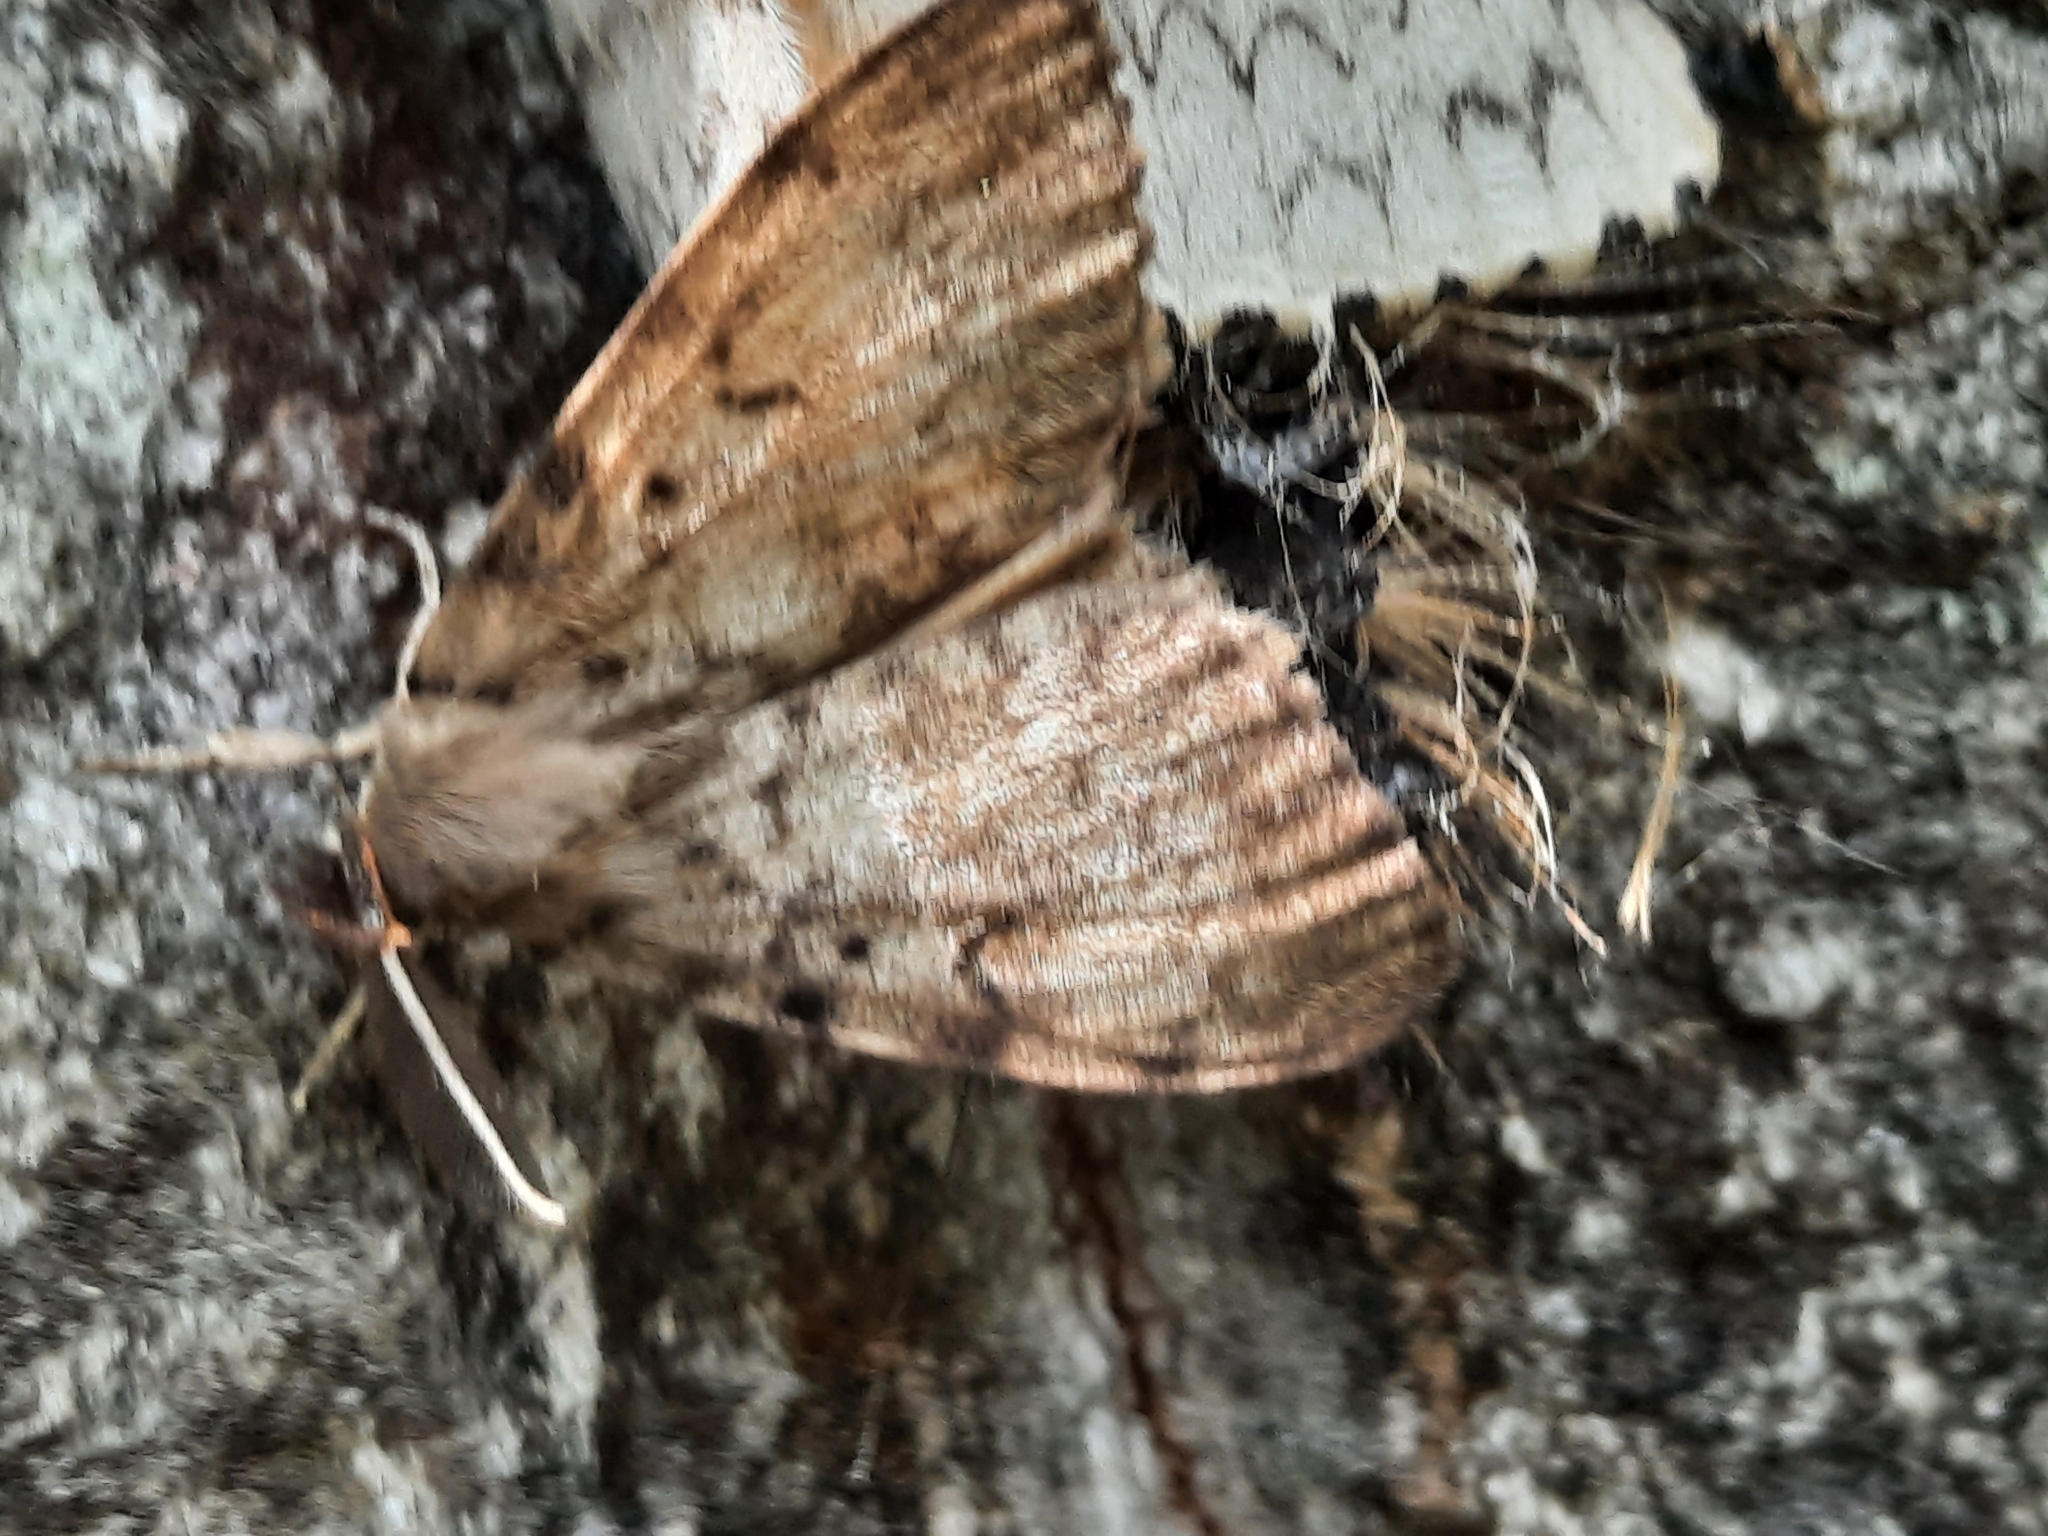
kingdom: Animalia
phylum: Arthropoda
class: Insecta
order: Lepidoptera
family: Erebidae
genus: Lymantria
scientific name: Lymantria dispar
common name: Gypsy moth
